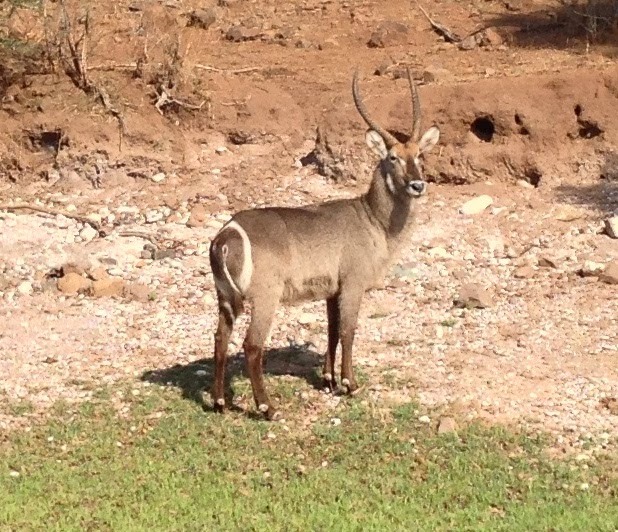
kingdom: Animalia
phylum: Chordata
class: Mammalia
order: Artiodactyla
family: Bovidae
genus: Kobus
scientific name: Kobus ellipsiprymnus
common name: Waterbuck
